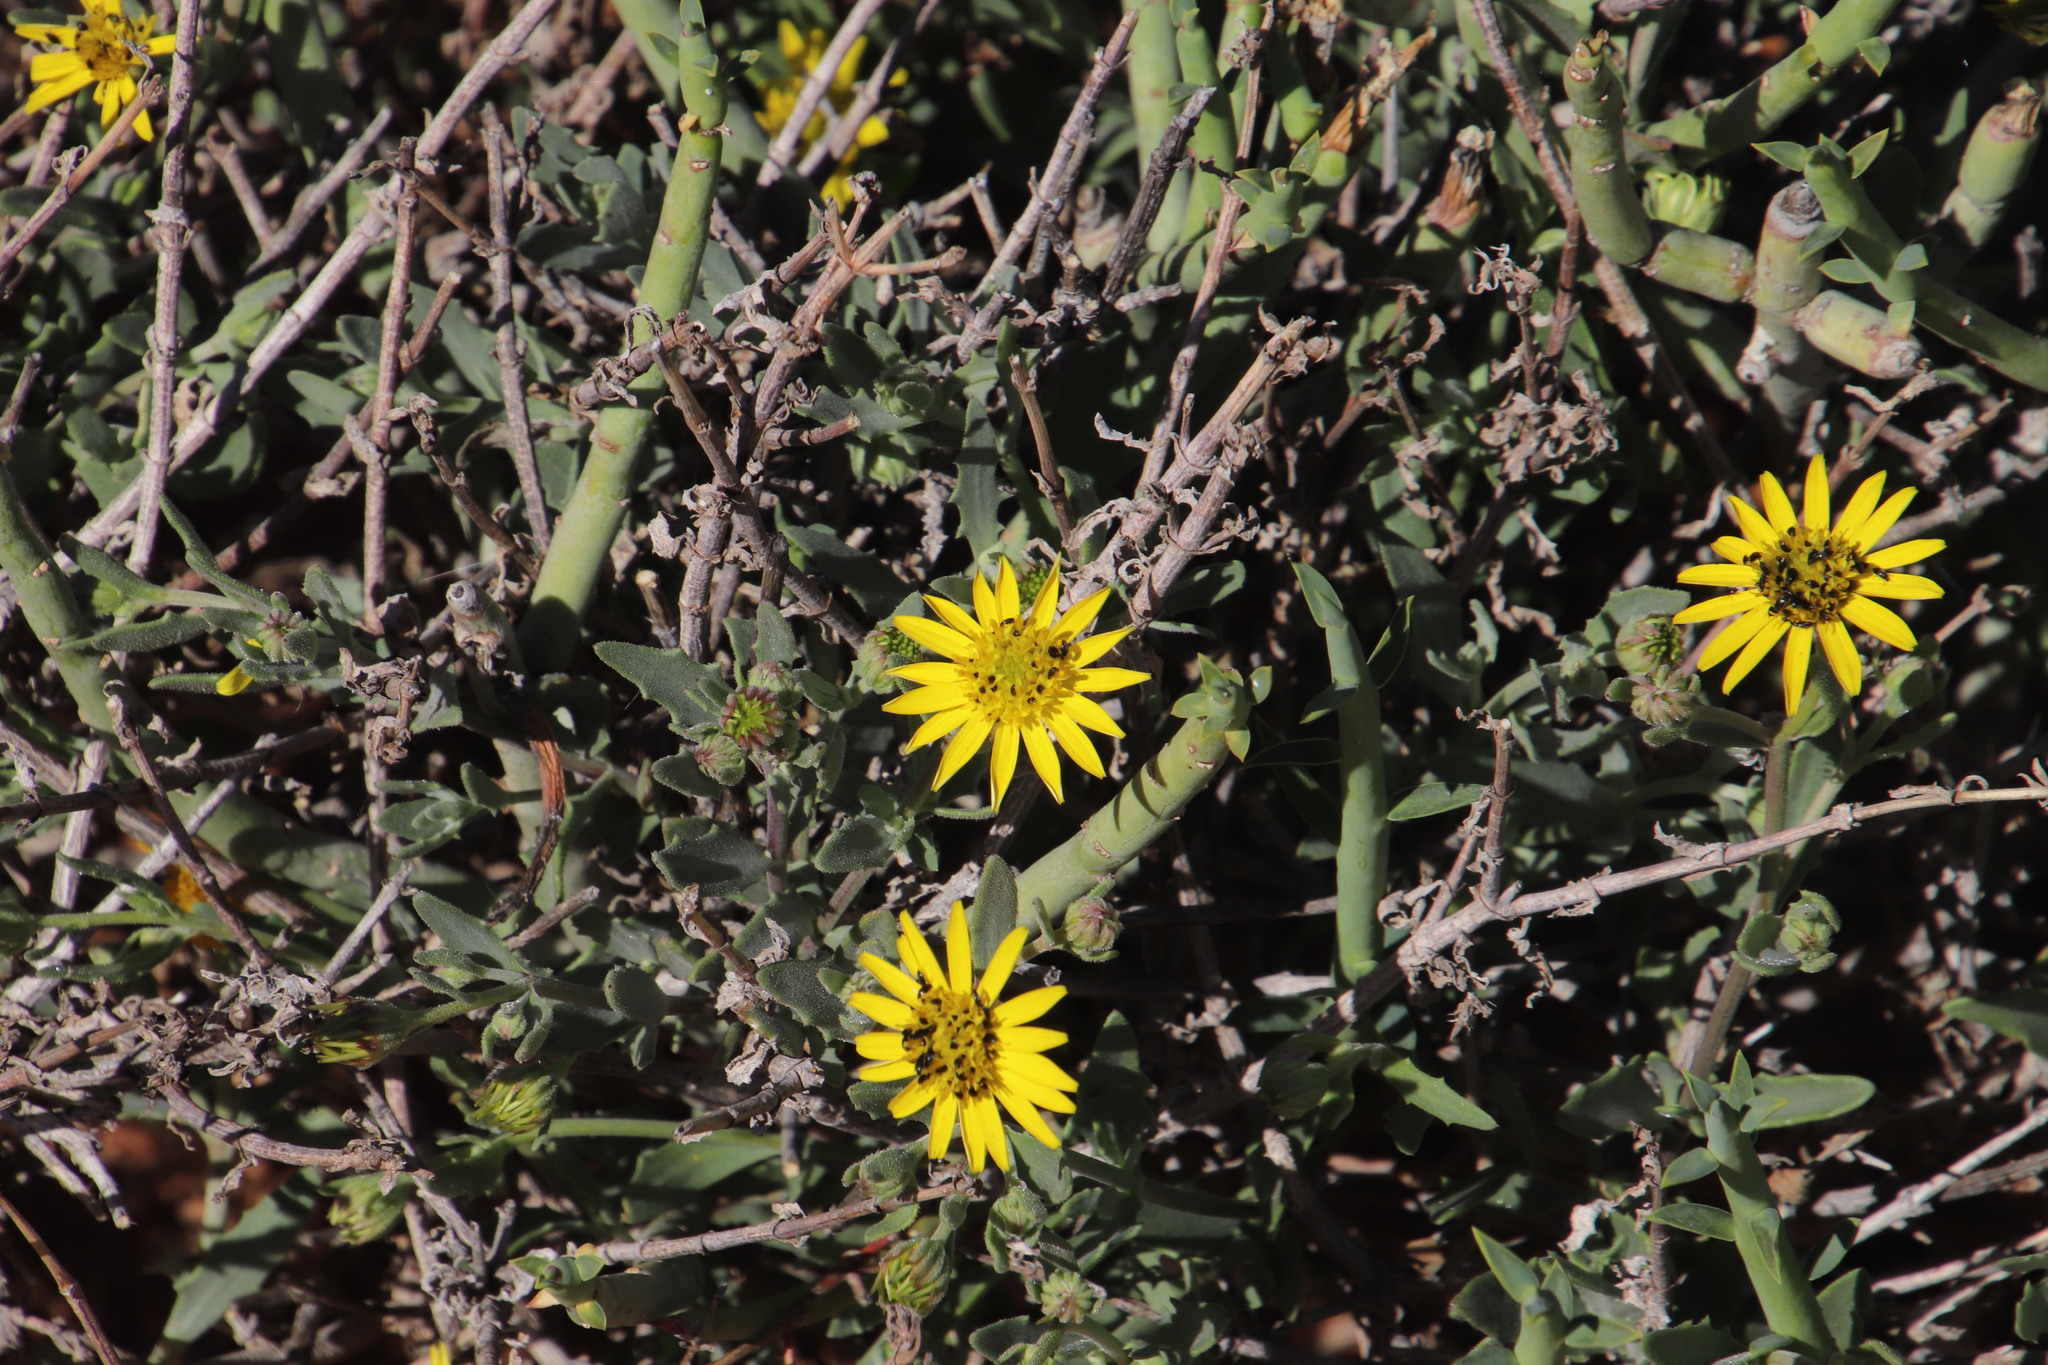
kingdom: Plantae
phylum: Tracheophyta
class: Magnoliopsida
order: Asterales
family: Asteraceae
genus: Osteospermum
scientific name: Osteospermum sinuatum
